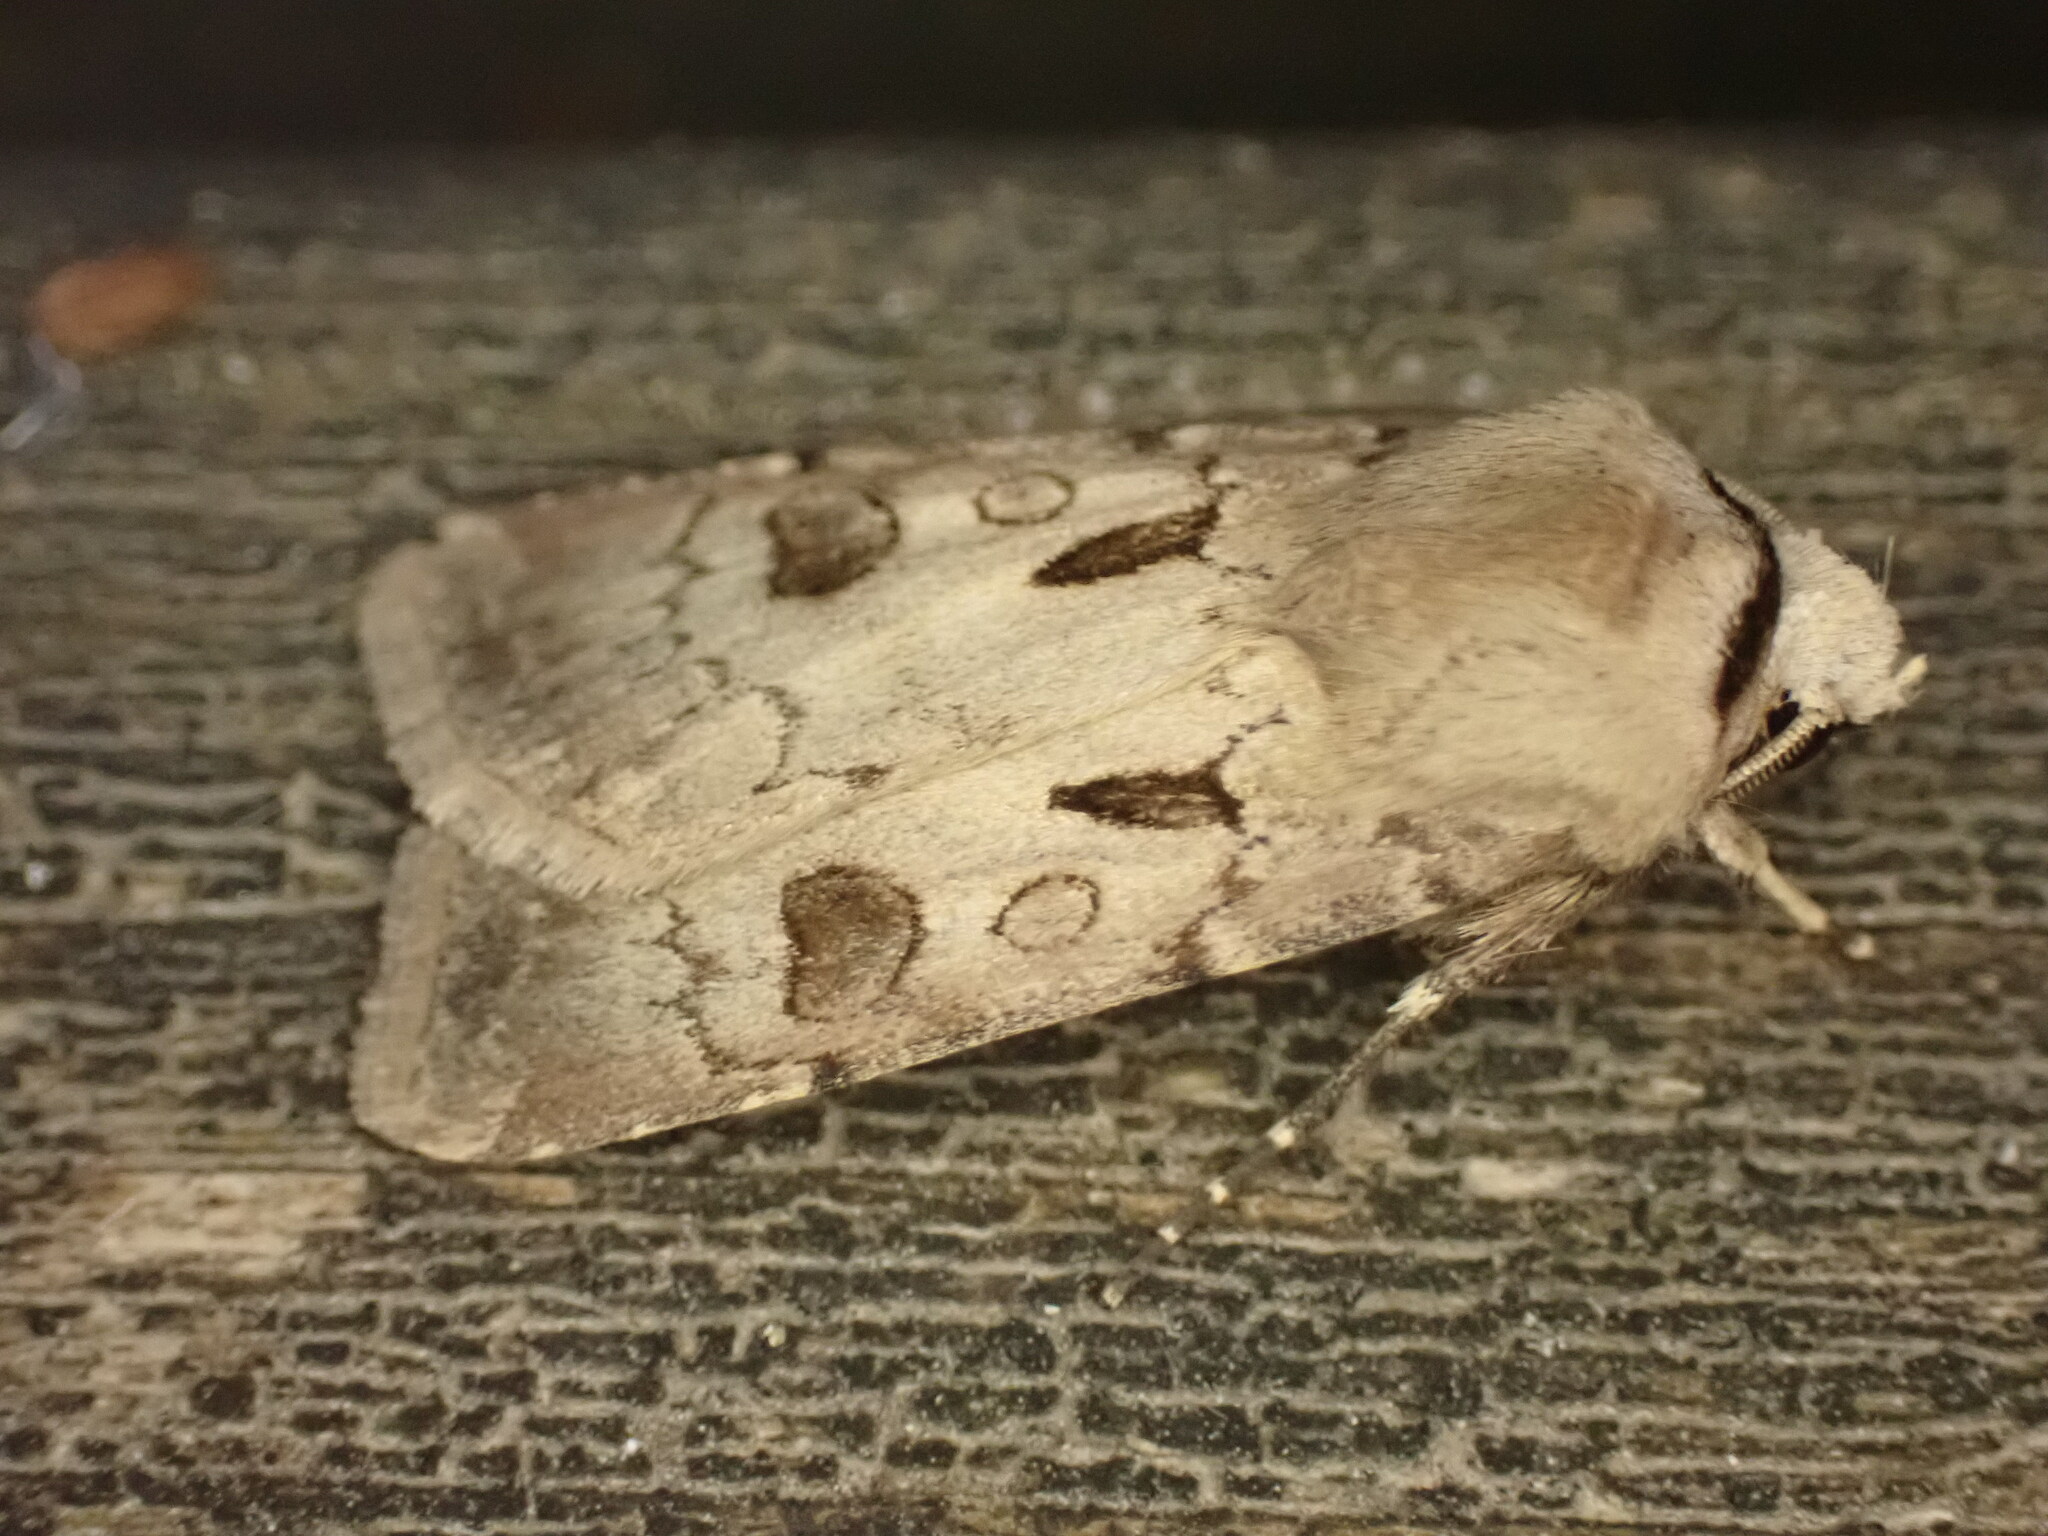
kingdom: Animalia
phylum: Arthropoda
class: Insecta
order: Lepidoptera
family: Noctuidae
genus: Agrotis
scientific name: Agrotis exclamationis
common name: Heart and dart
